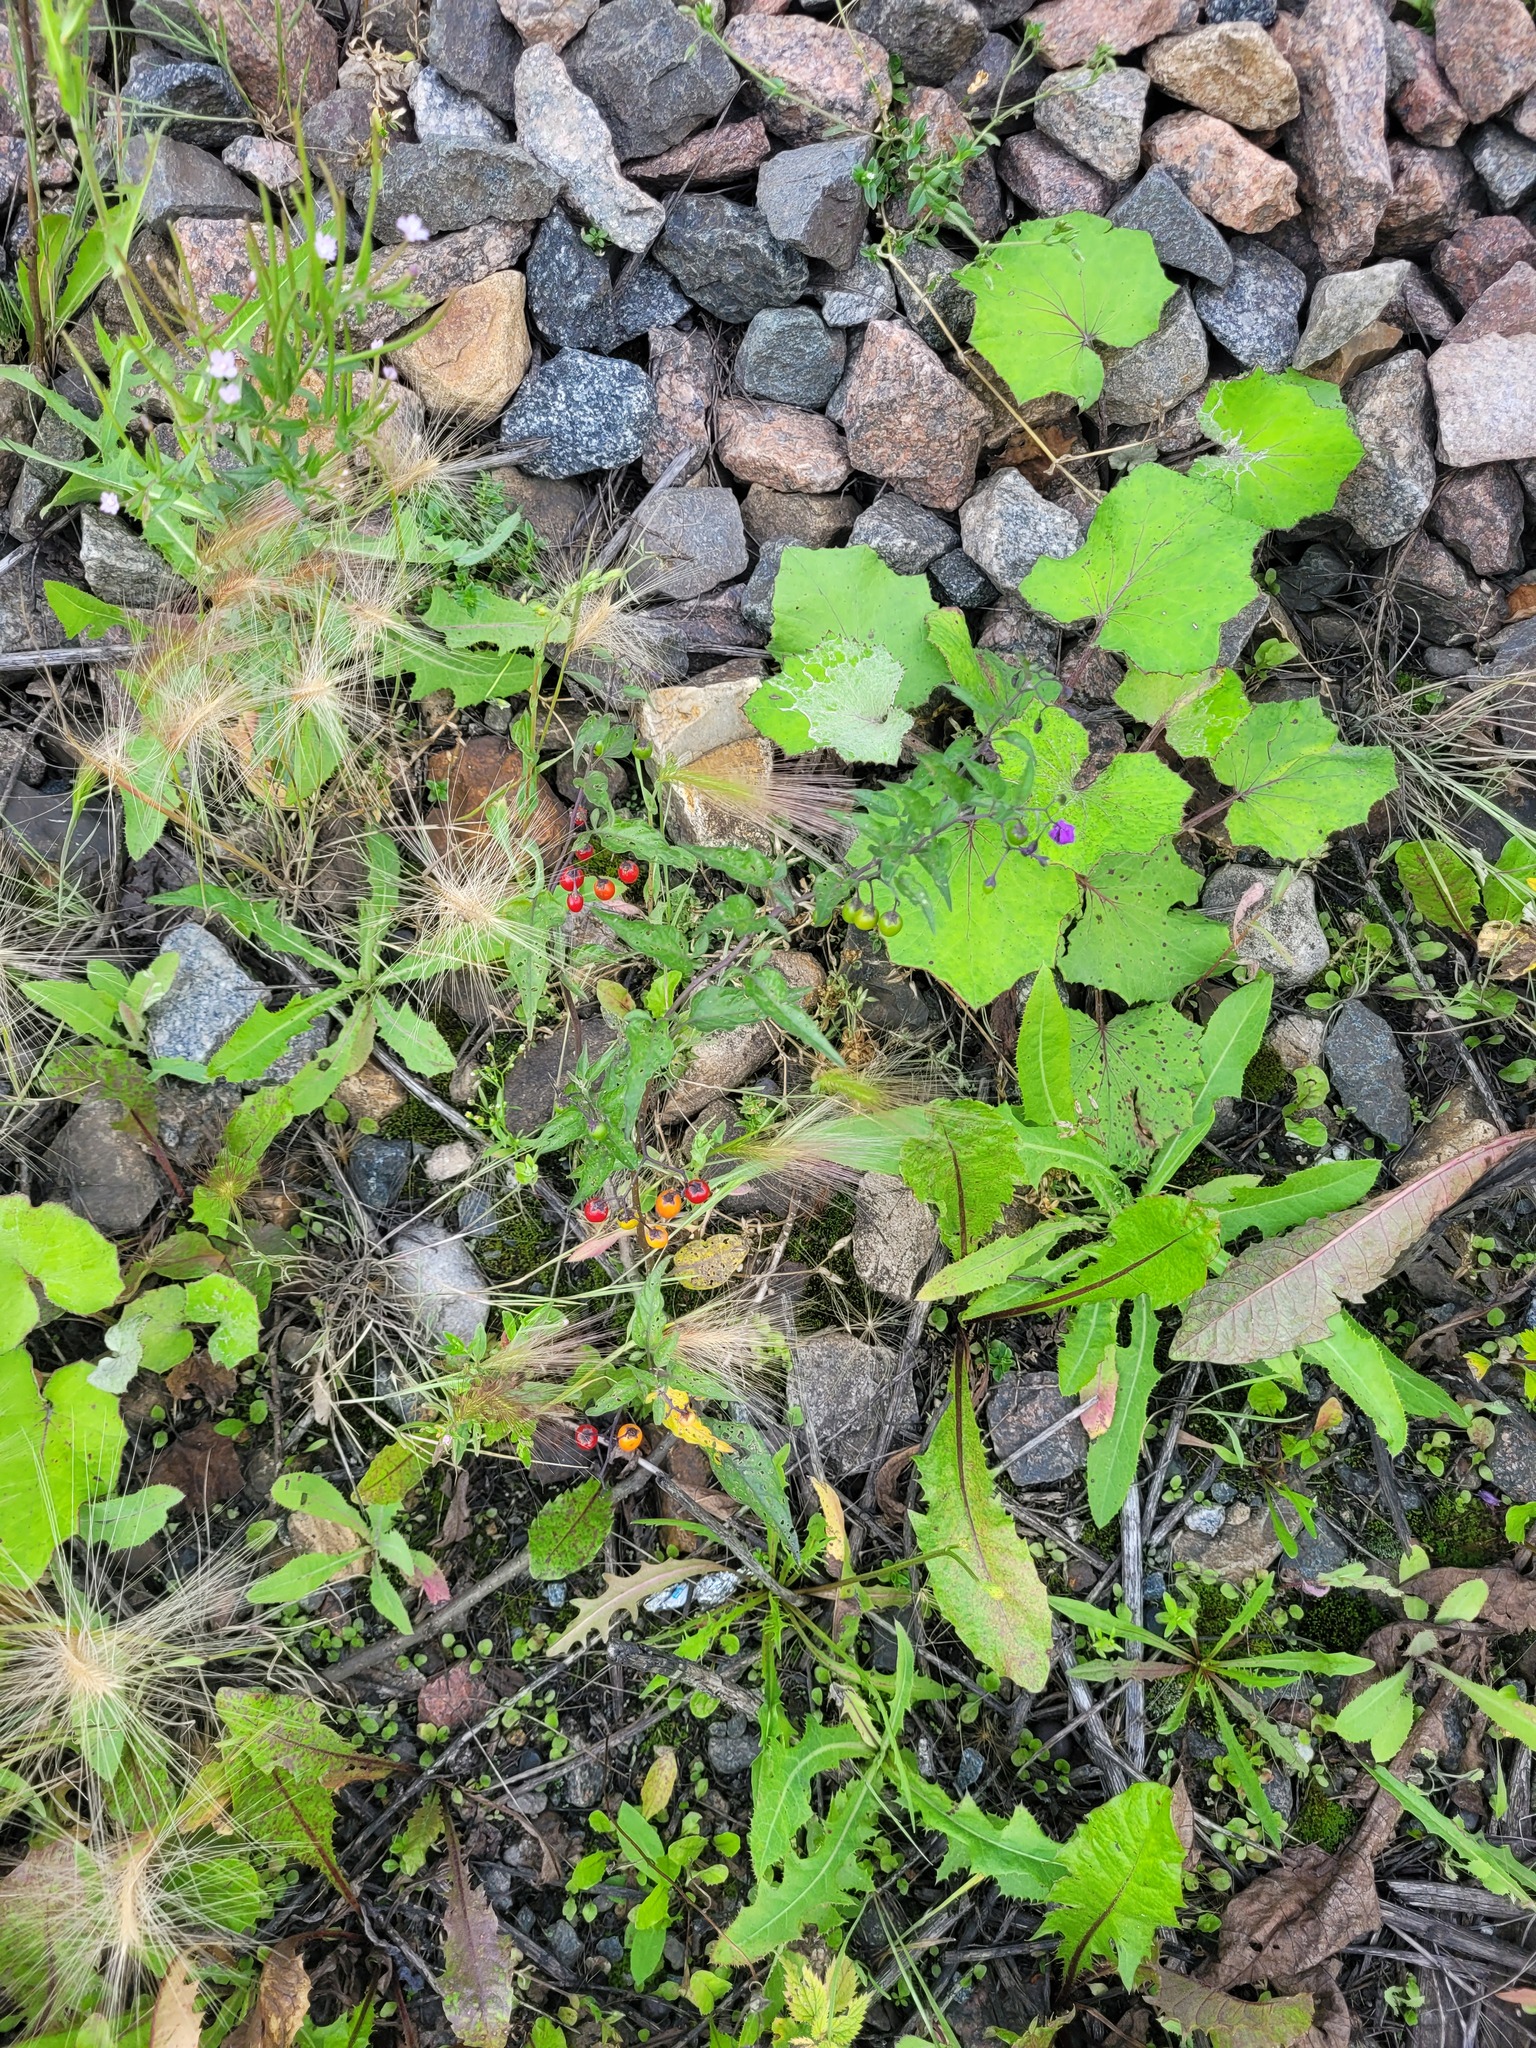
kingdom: Plantae
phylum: Tracheophyta
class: Liliopsida
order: Poales
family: Poaceae
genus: Hordeum
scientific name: Hordeum jubatum
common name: Foxtail barley
